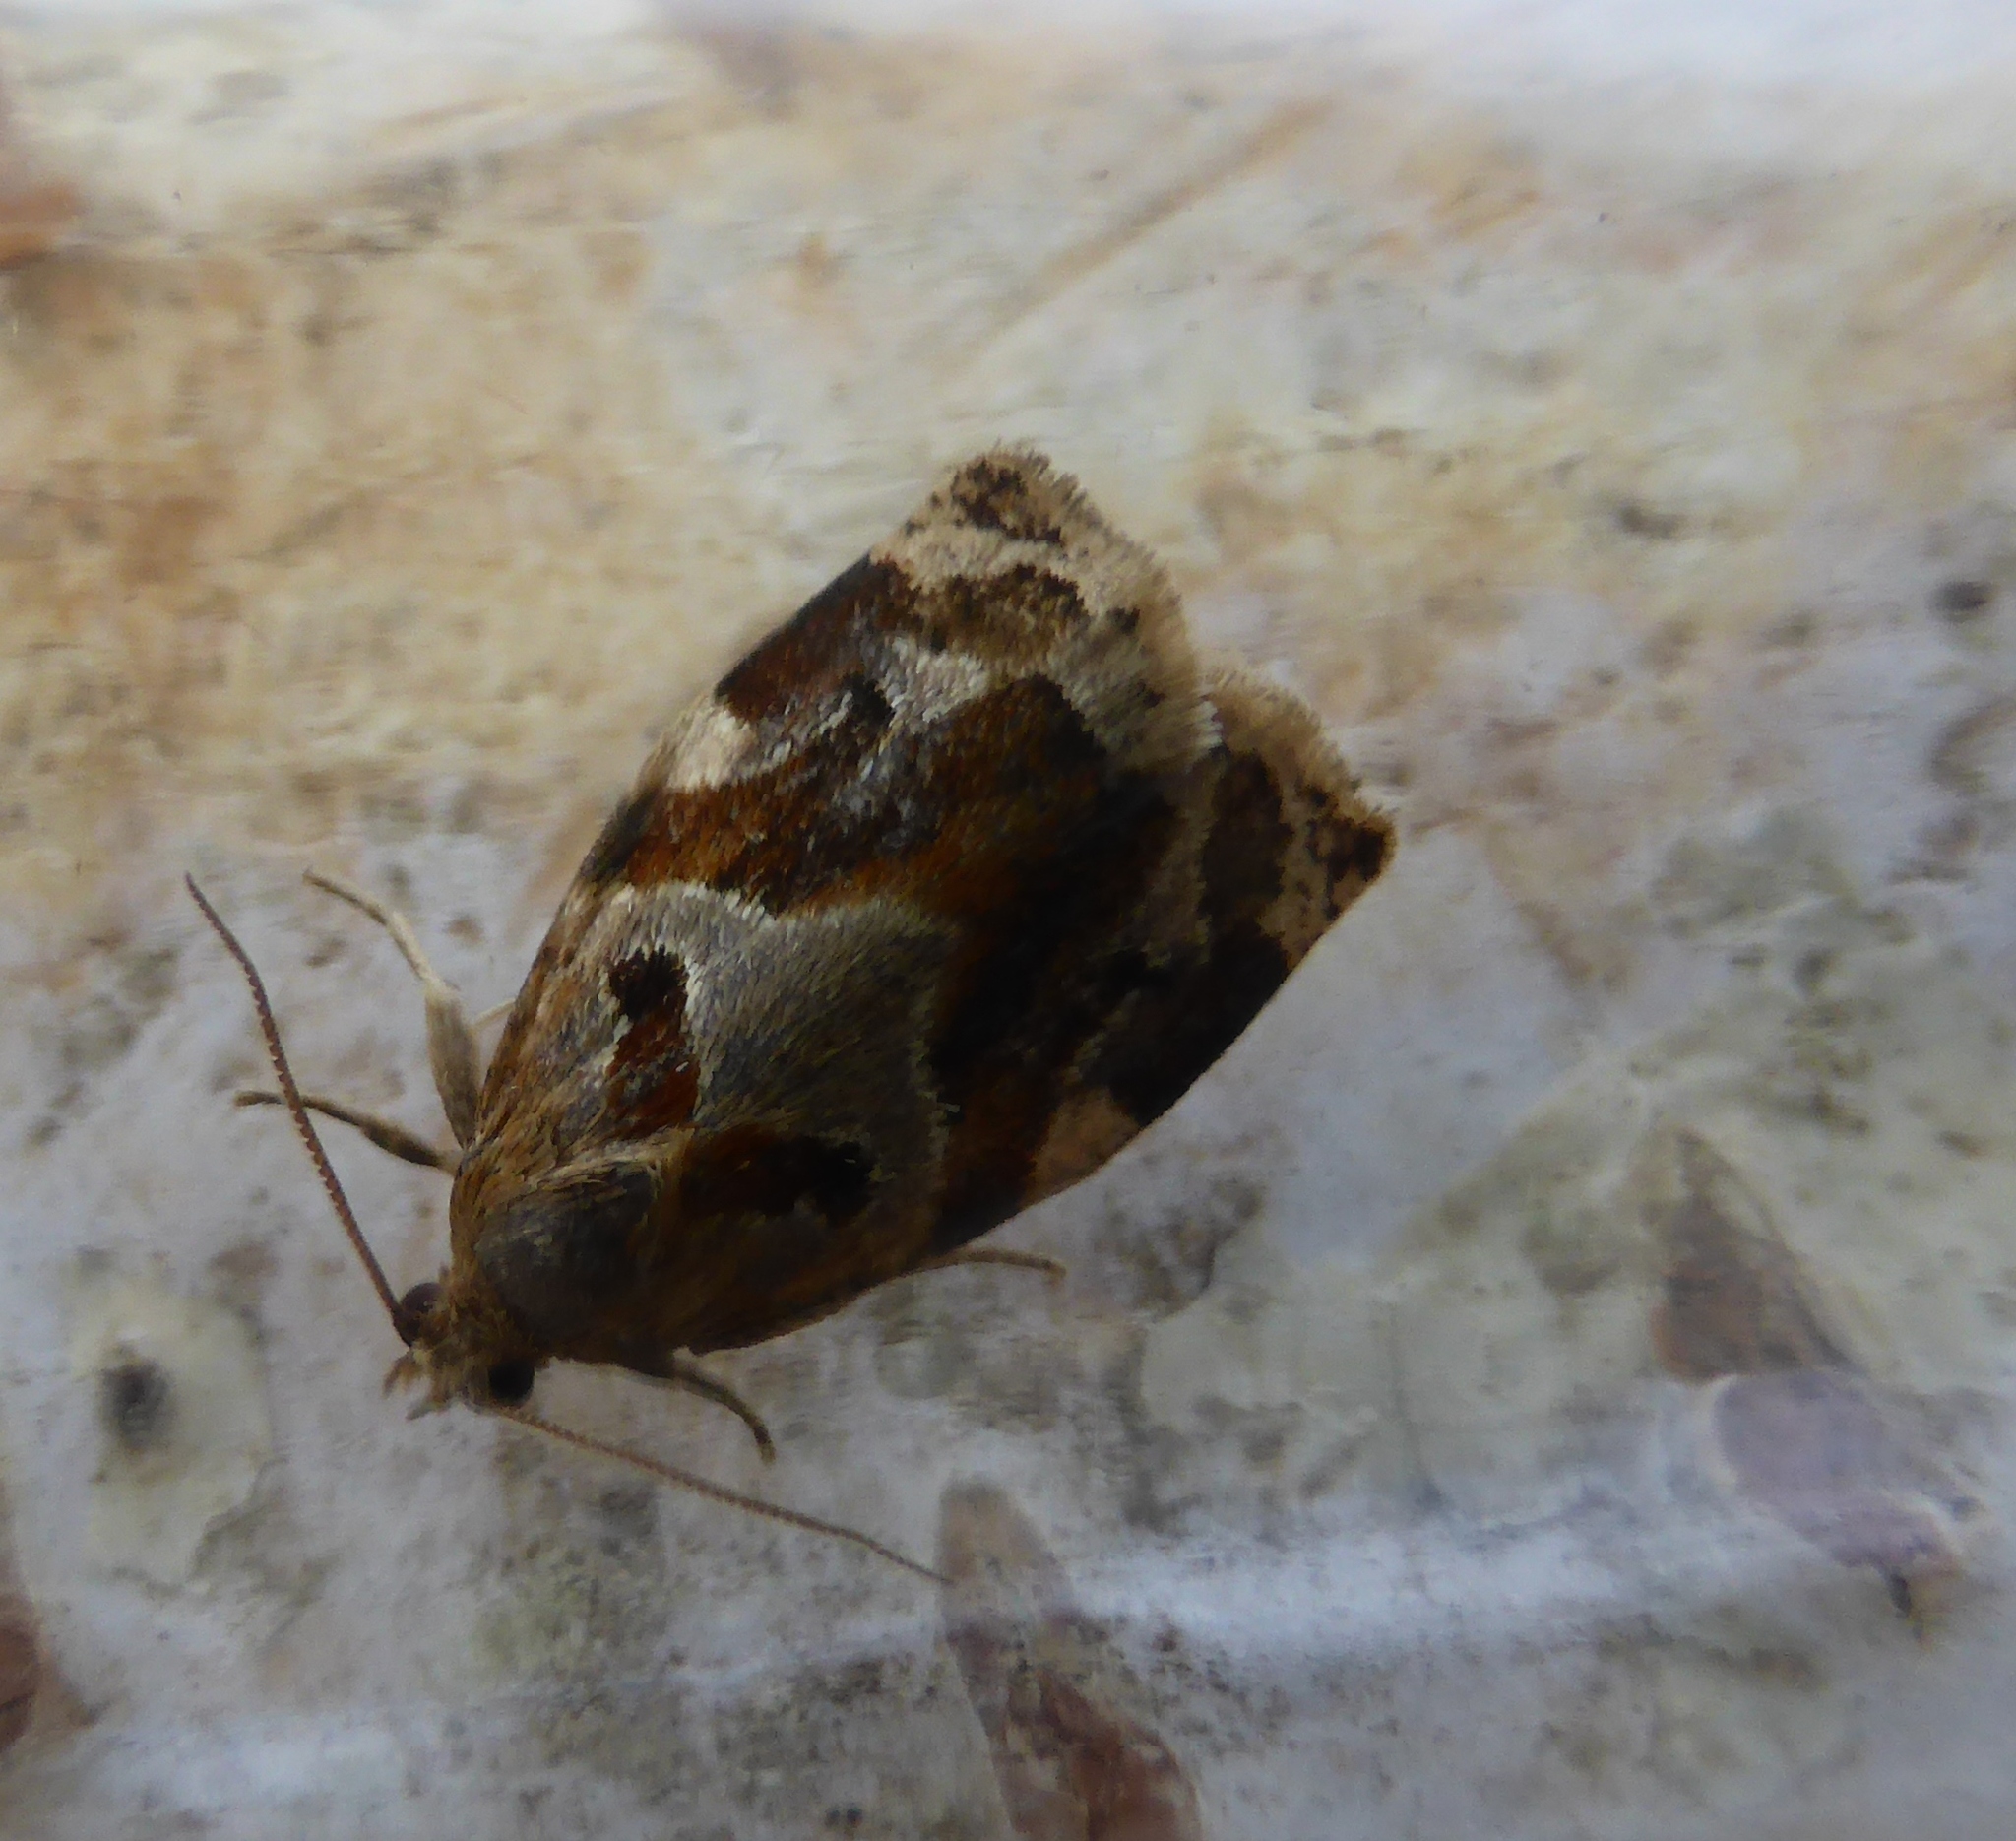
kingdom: Animalia
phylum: Arthropoda
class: Insecta
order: Lepidoptera
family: Tortricidae
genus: Archips
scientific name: Archips xylosteana
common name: Variegated golden tortrix
